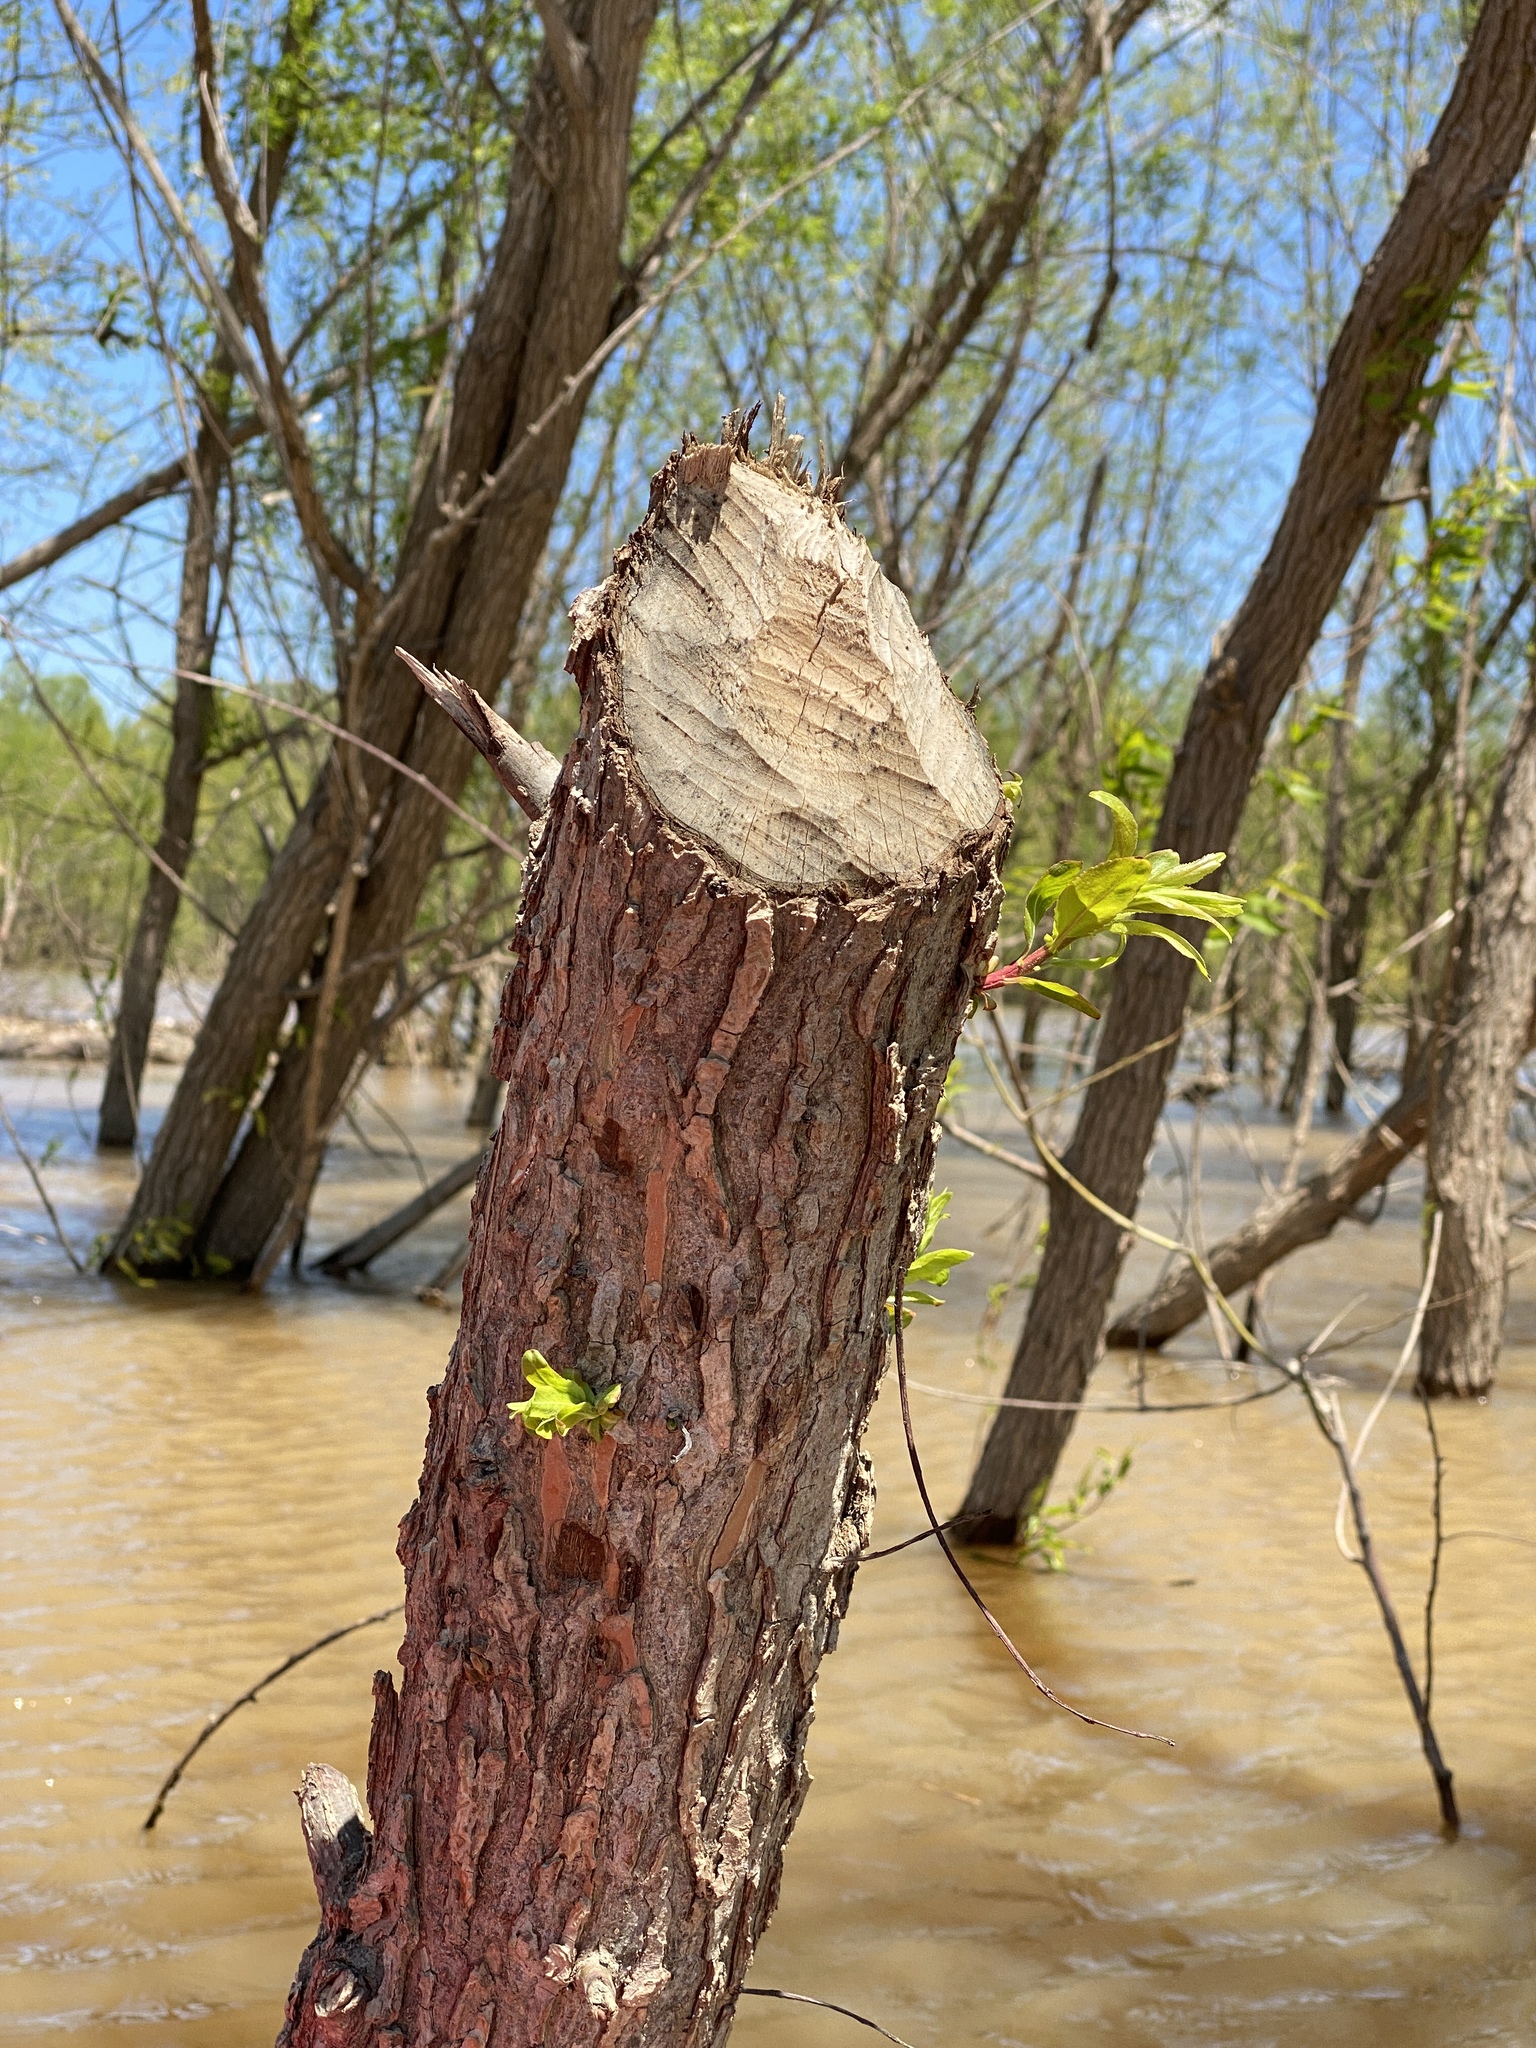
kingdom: Animalia
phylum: Chordata
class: Mammalia
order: Rodentia
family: Castoridae
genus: Castor
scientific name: Castor canadensis
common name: American beaver
